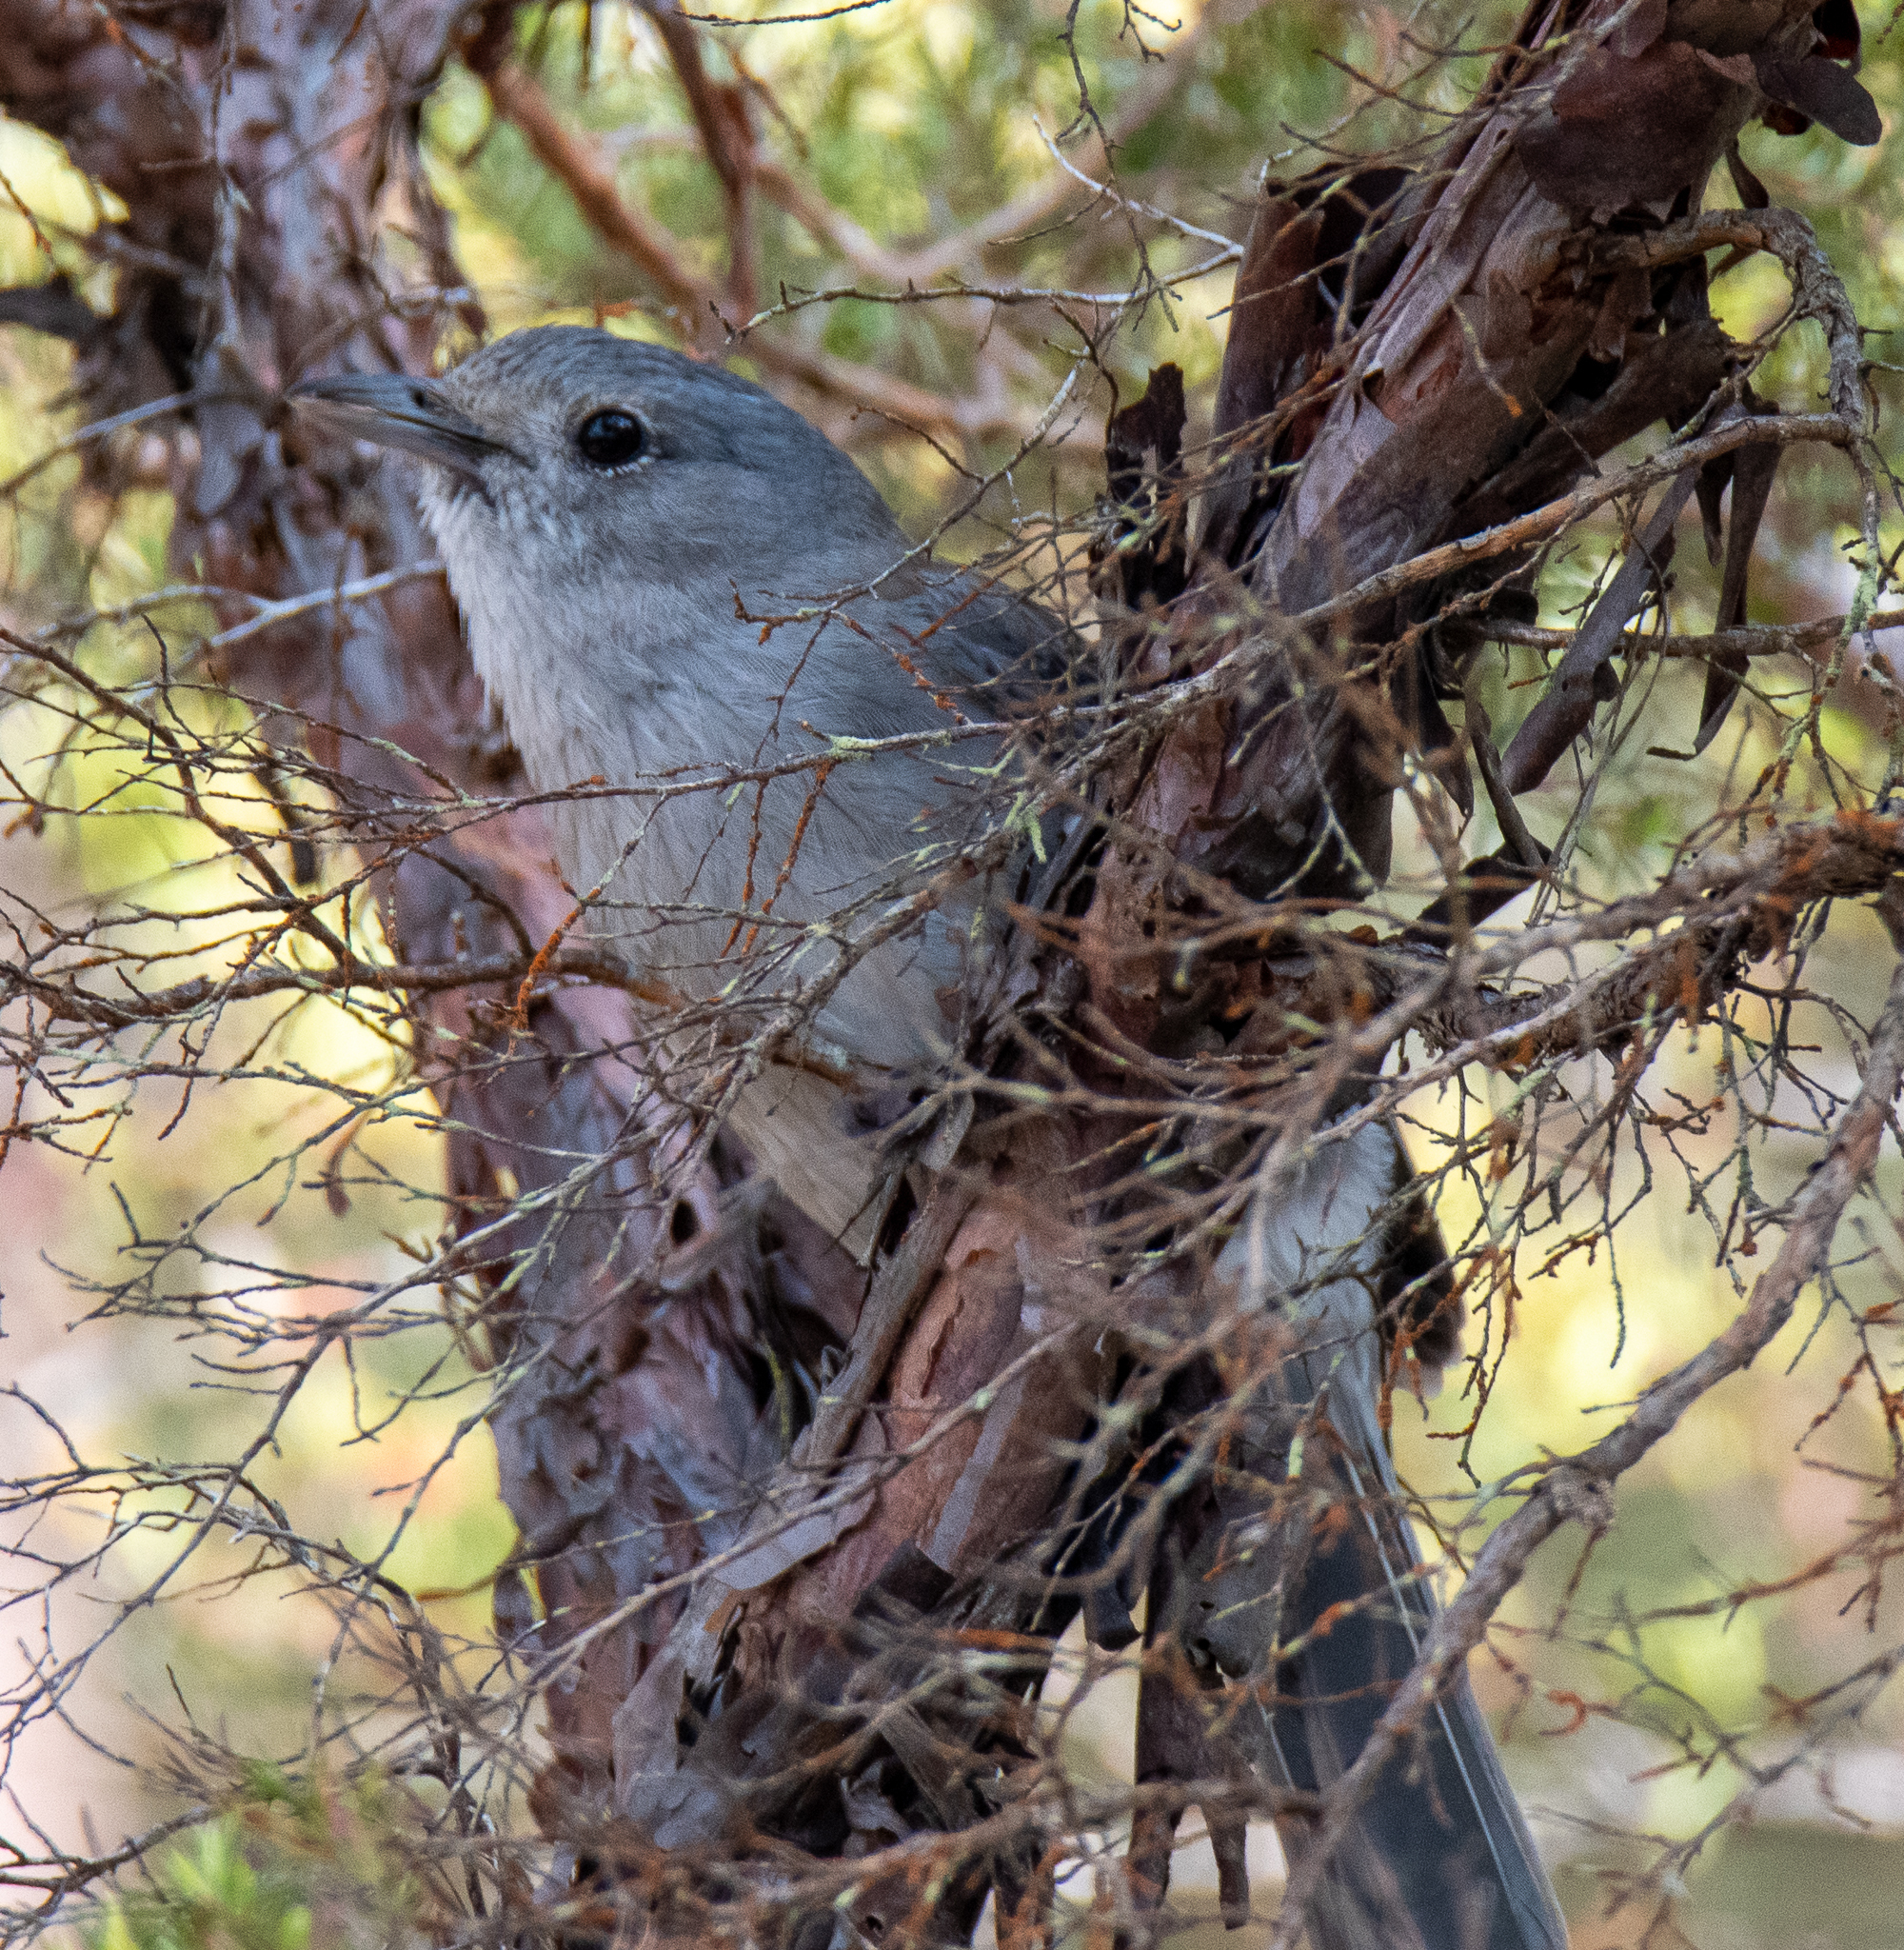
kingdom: Animalia
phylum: Chordata
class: Aves
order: Passeriformes
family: Pachycephalidae
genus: Colluricincla
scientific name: Colluricincla harmonica
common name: Grey shrikethrush
